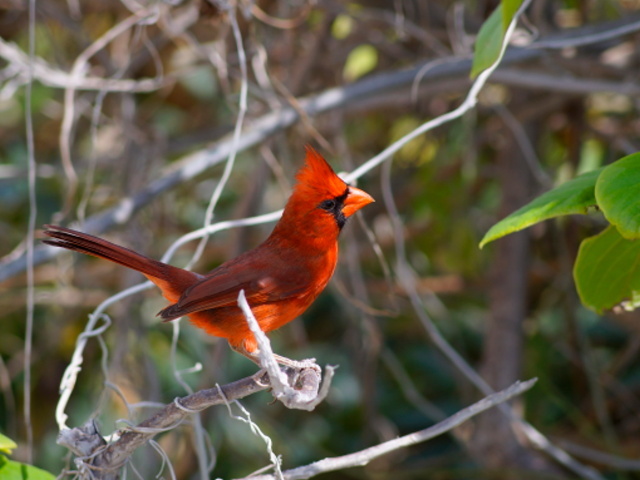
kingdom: Animalia
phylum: Chordata
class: Aves
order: Passeriformes
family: Cardinalidae
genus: Cardinalis
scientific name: Cardinalis cardinalis
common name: Northern cardinal
